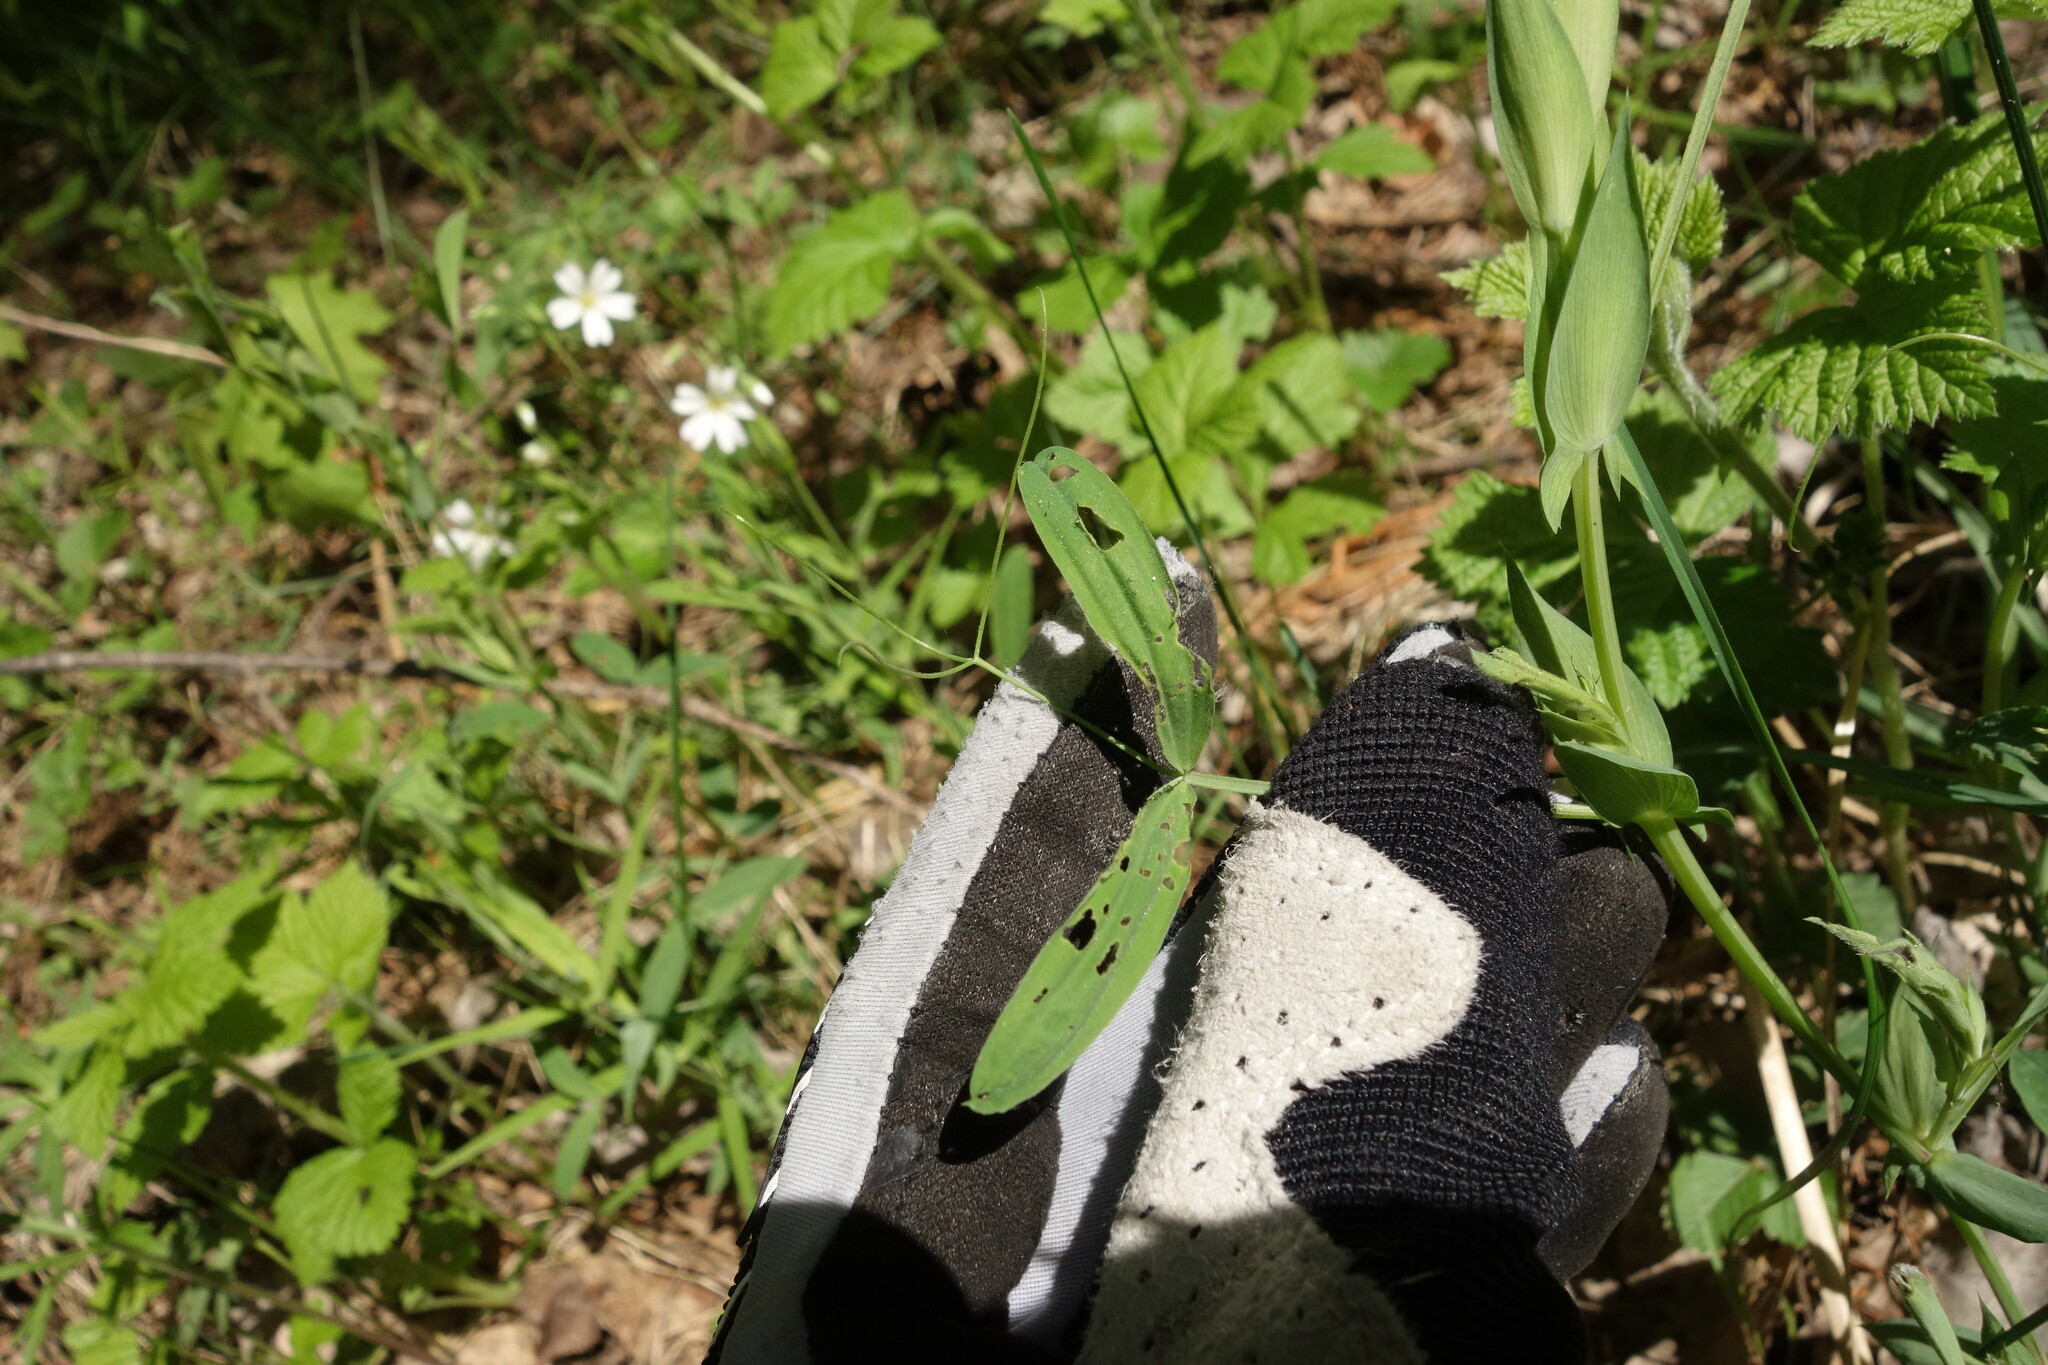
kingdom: Plantae
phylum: Tracheophyta
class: Magnoliopsida
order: Fabales
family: Fabaceae
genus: Lathyrus
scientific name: Lathyrus pratensis
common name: Meadow vetchling
